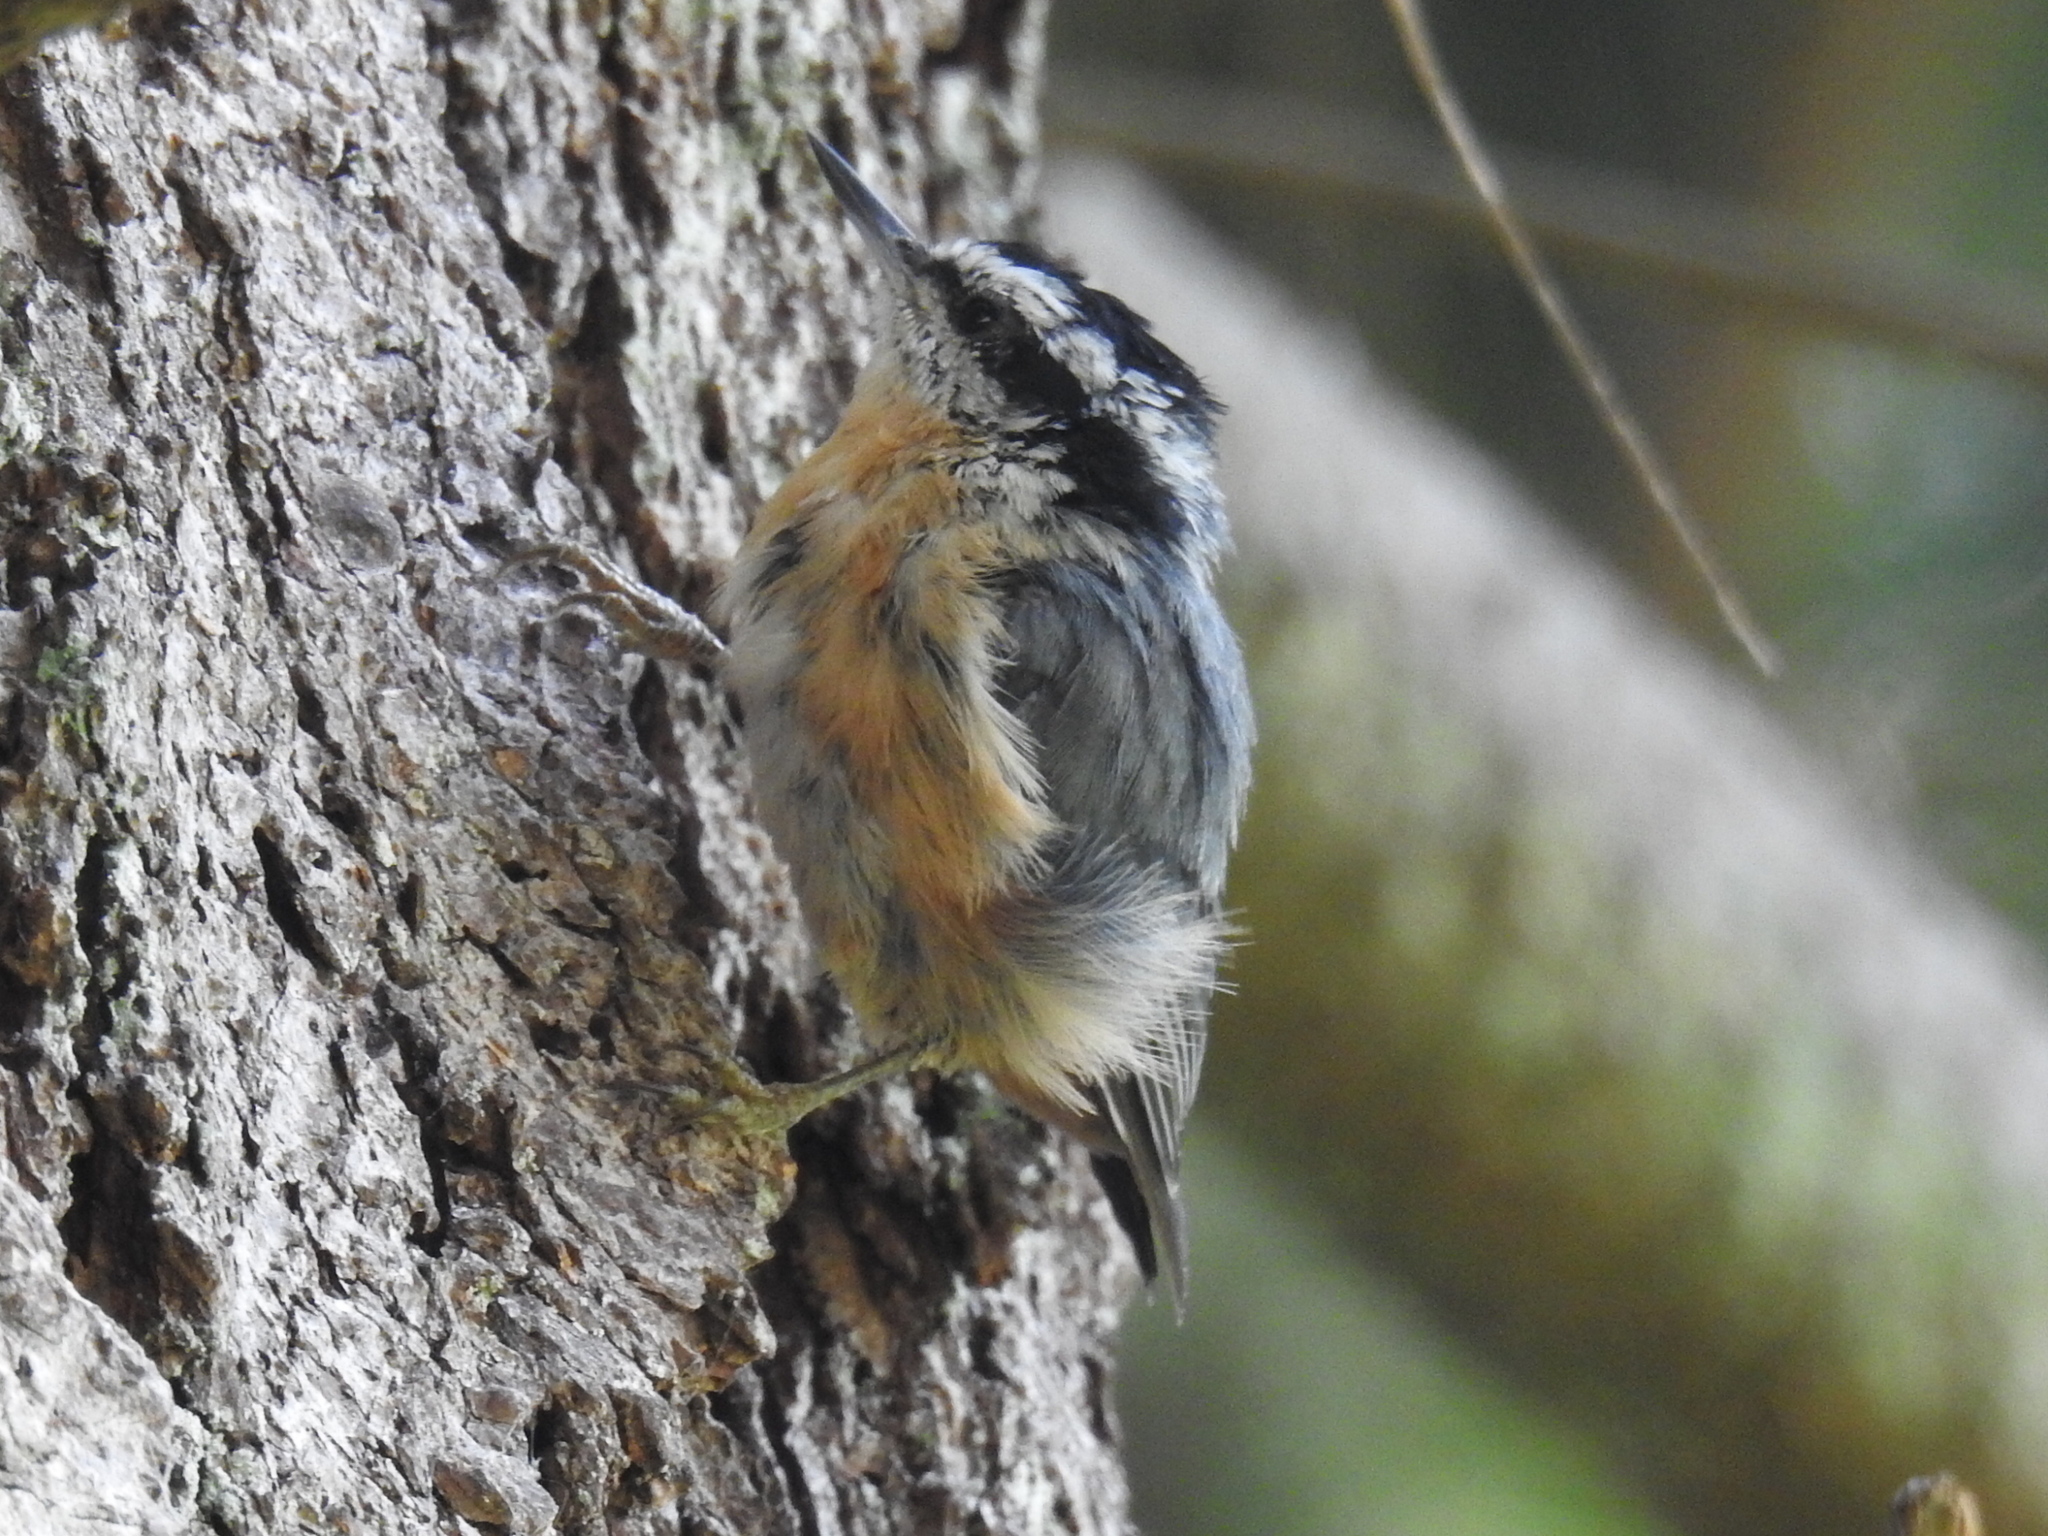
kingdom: Animalia
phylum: Chordata
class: Aves
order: Passeriformes
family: Sittidae
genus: Sitta
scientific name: Sitta canadensis
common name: Red-breasted nuthatch
